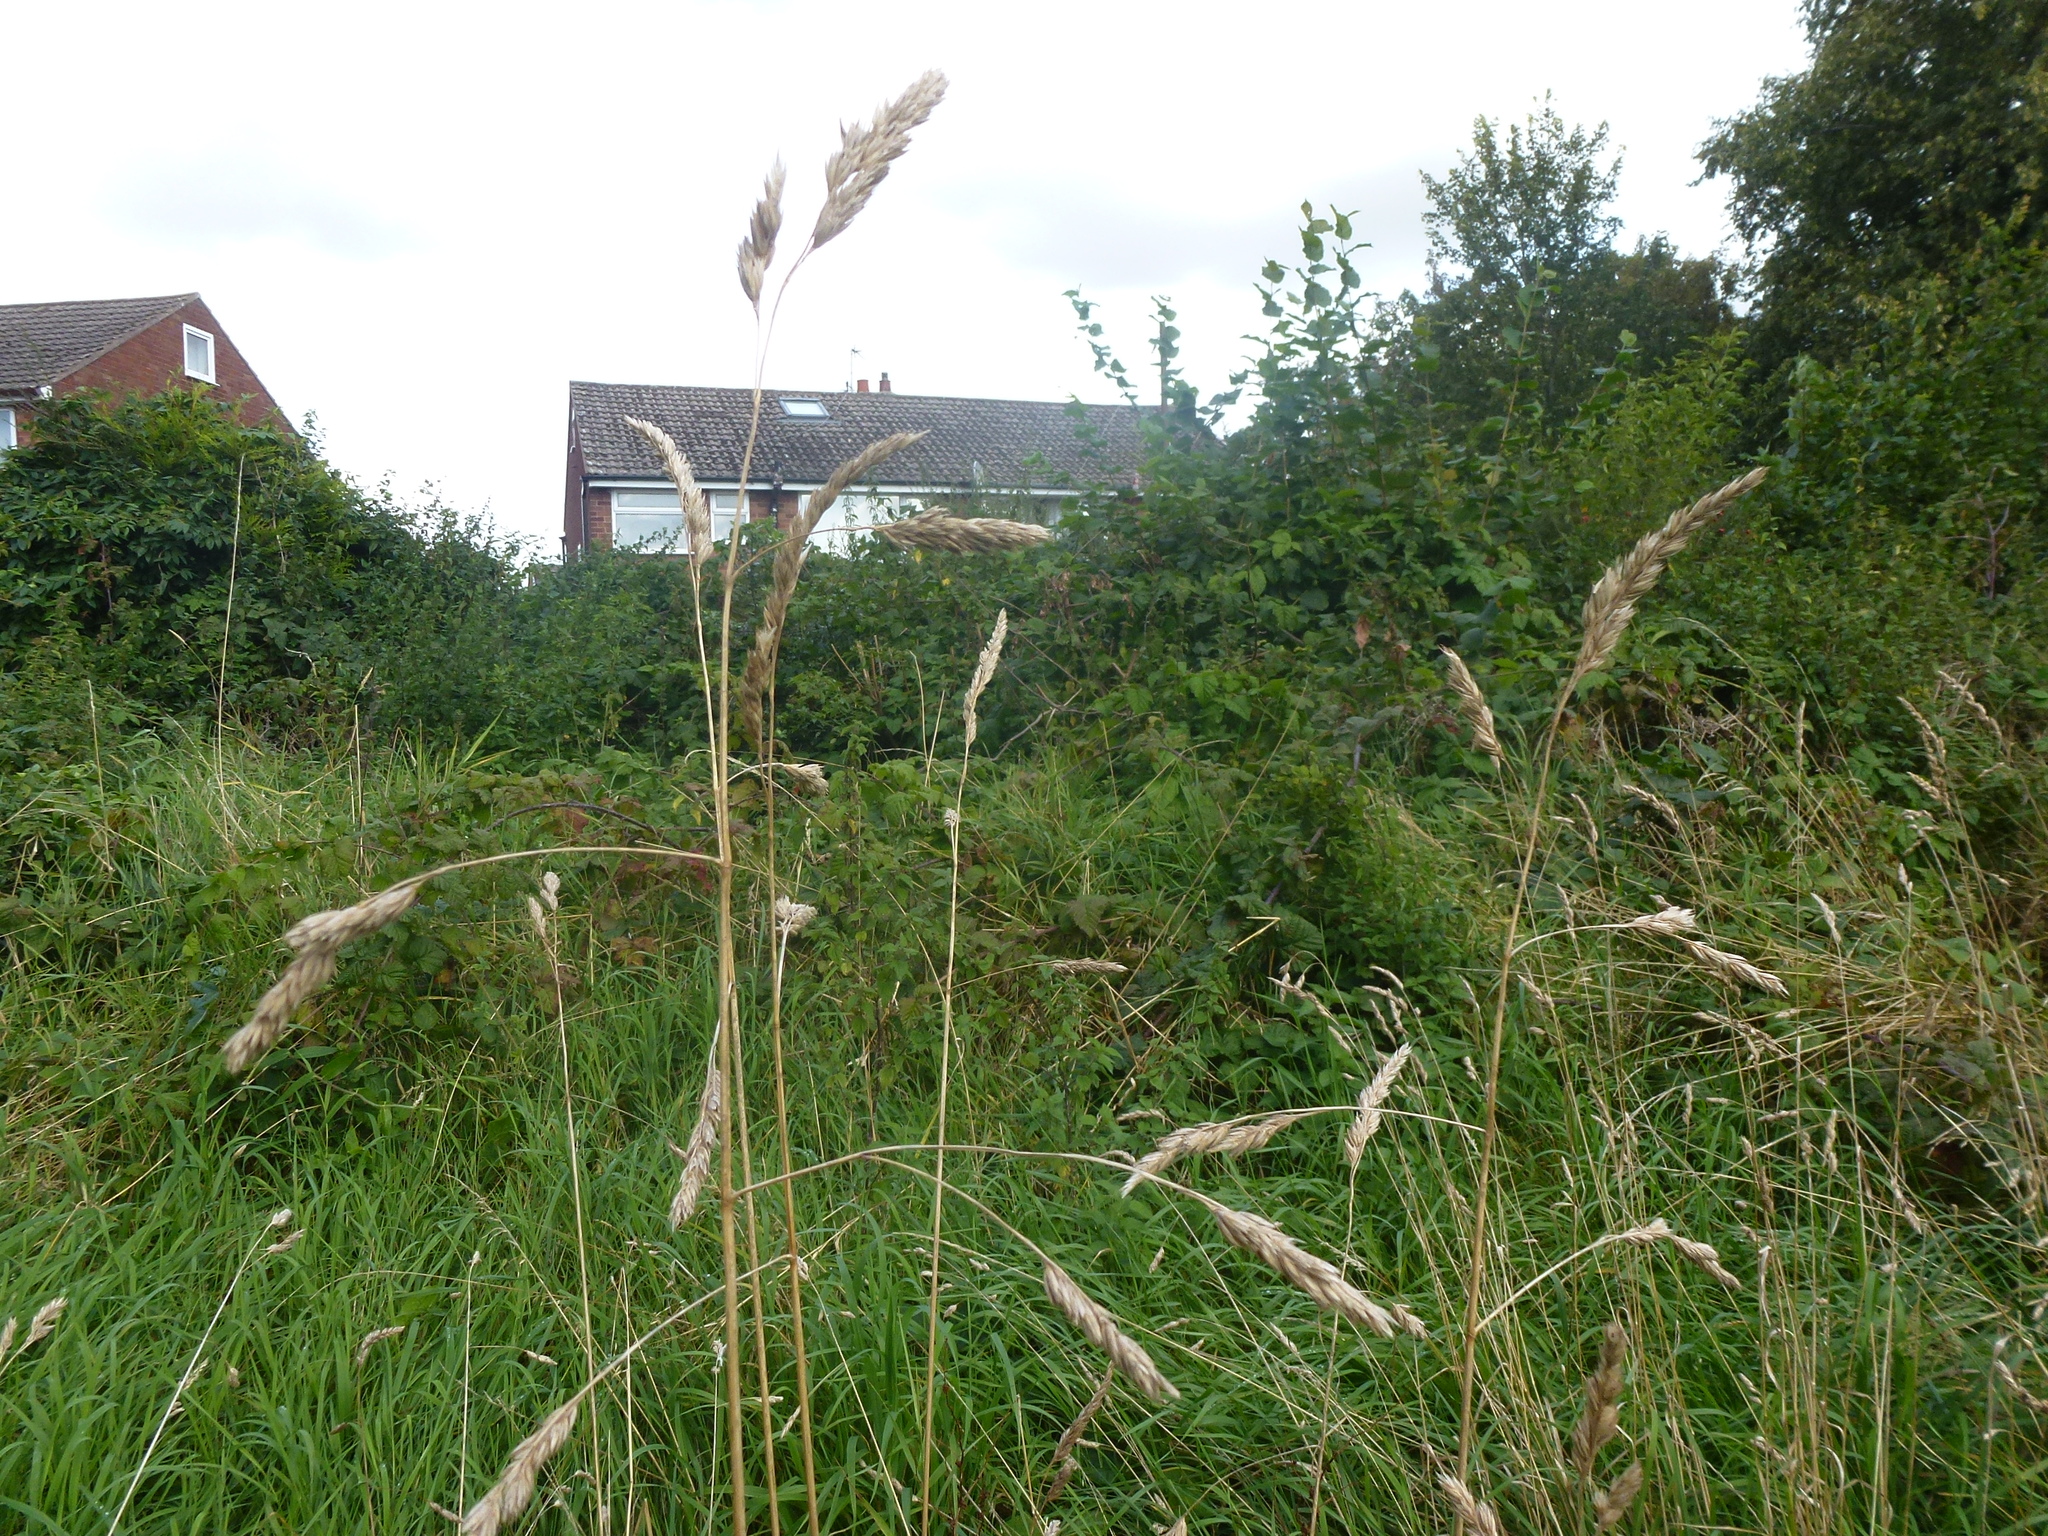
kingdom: Plantae
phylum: Tracheophyta
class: Liliopsida
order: Poales
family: Poaceae
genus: Dactylis
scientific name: Dactylis glomerata
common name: Orchardgrass
